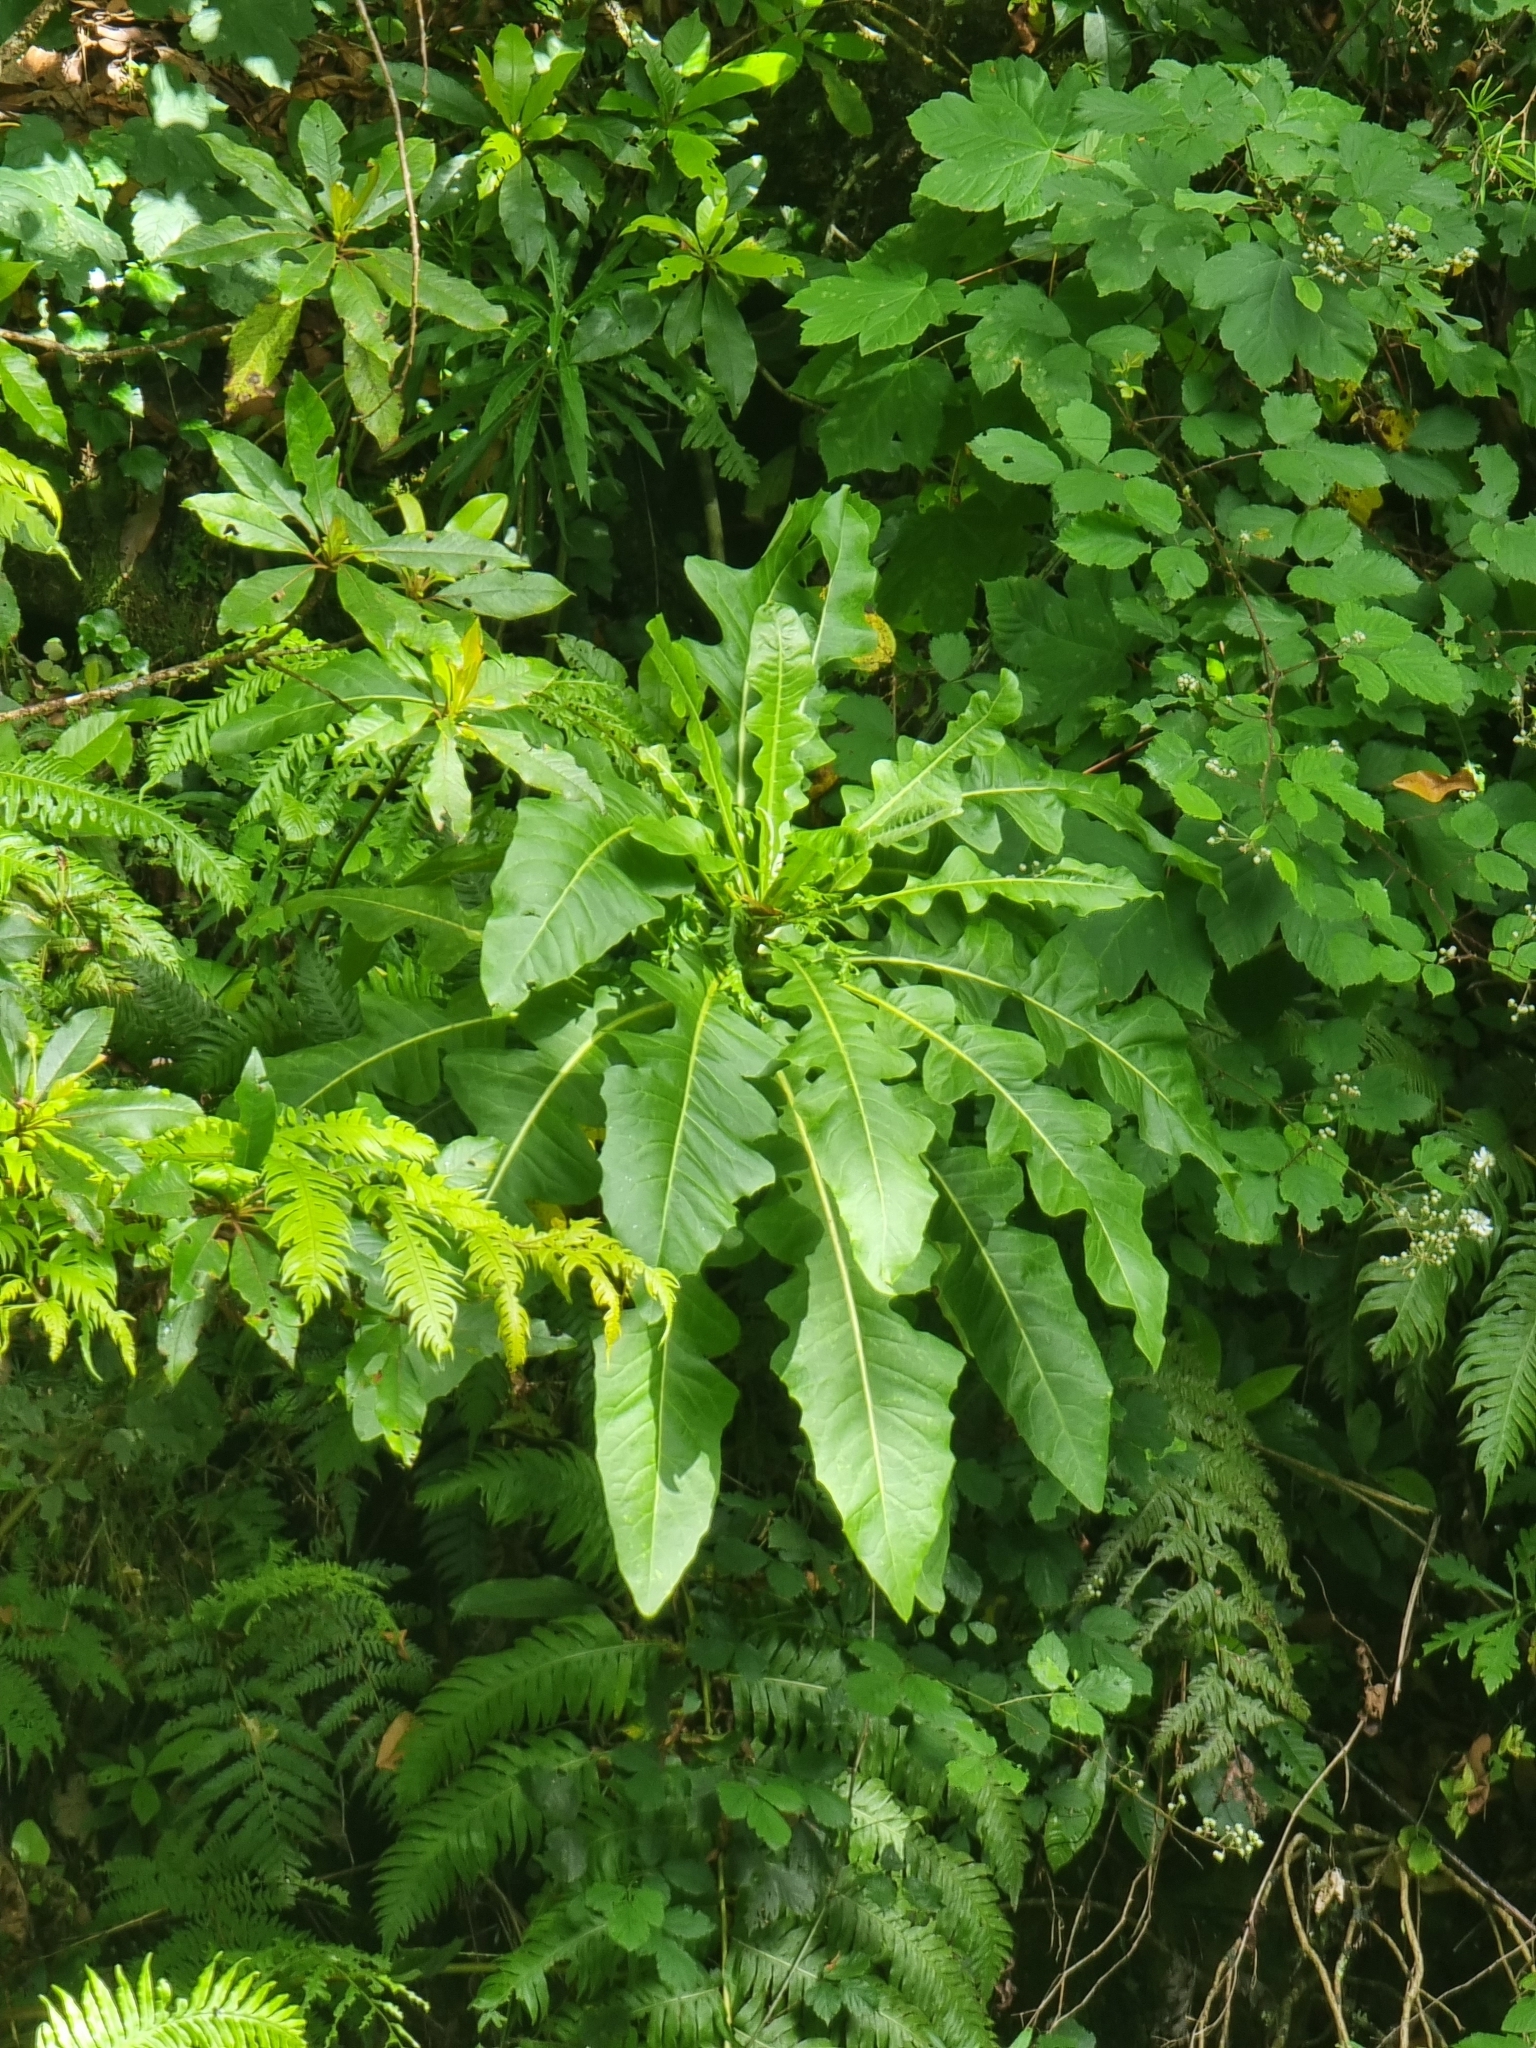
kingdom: Plantae
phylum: Tracheophyta
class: Magnoliopsida
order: Asterales
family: Asteraceae
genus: Sonchus
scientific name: Sonchus fruticosus
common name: Shrubby sow-thistle
